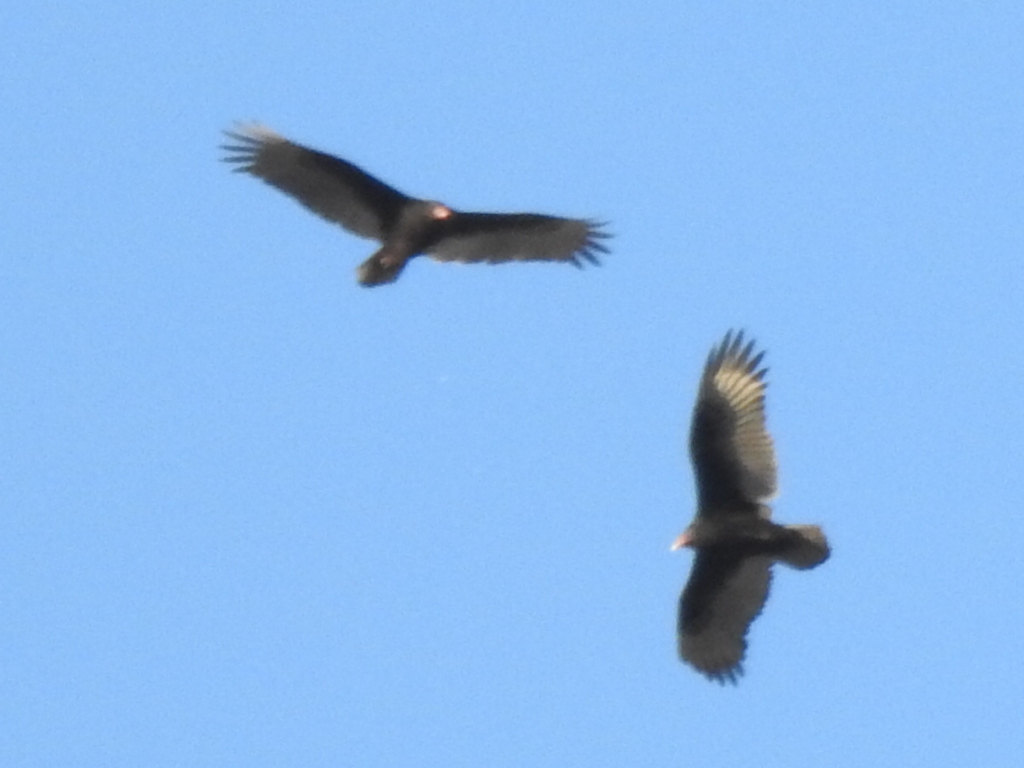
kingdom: Animalia
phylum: Chordata
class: Aves
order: Accipitriformes
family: Cathartidae
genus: Cathartes
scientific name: Cathartes aura
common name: Turkey vulture
